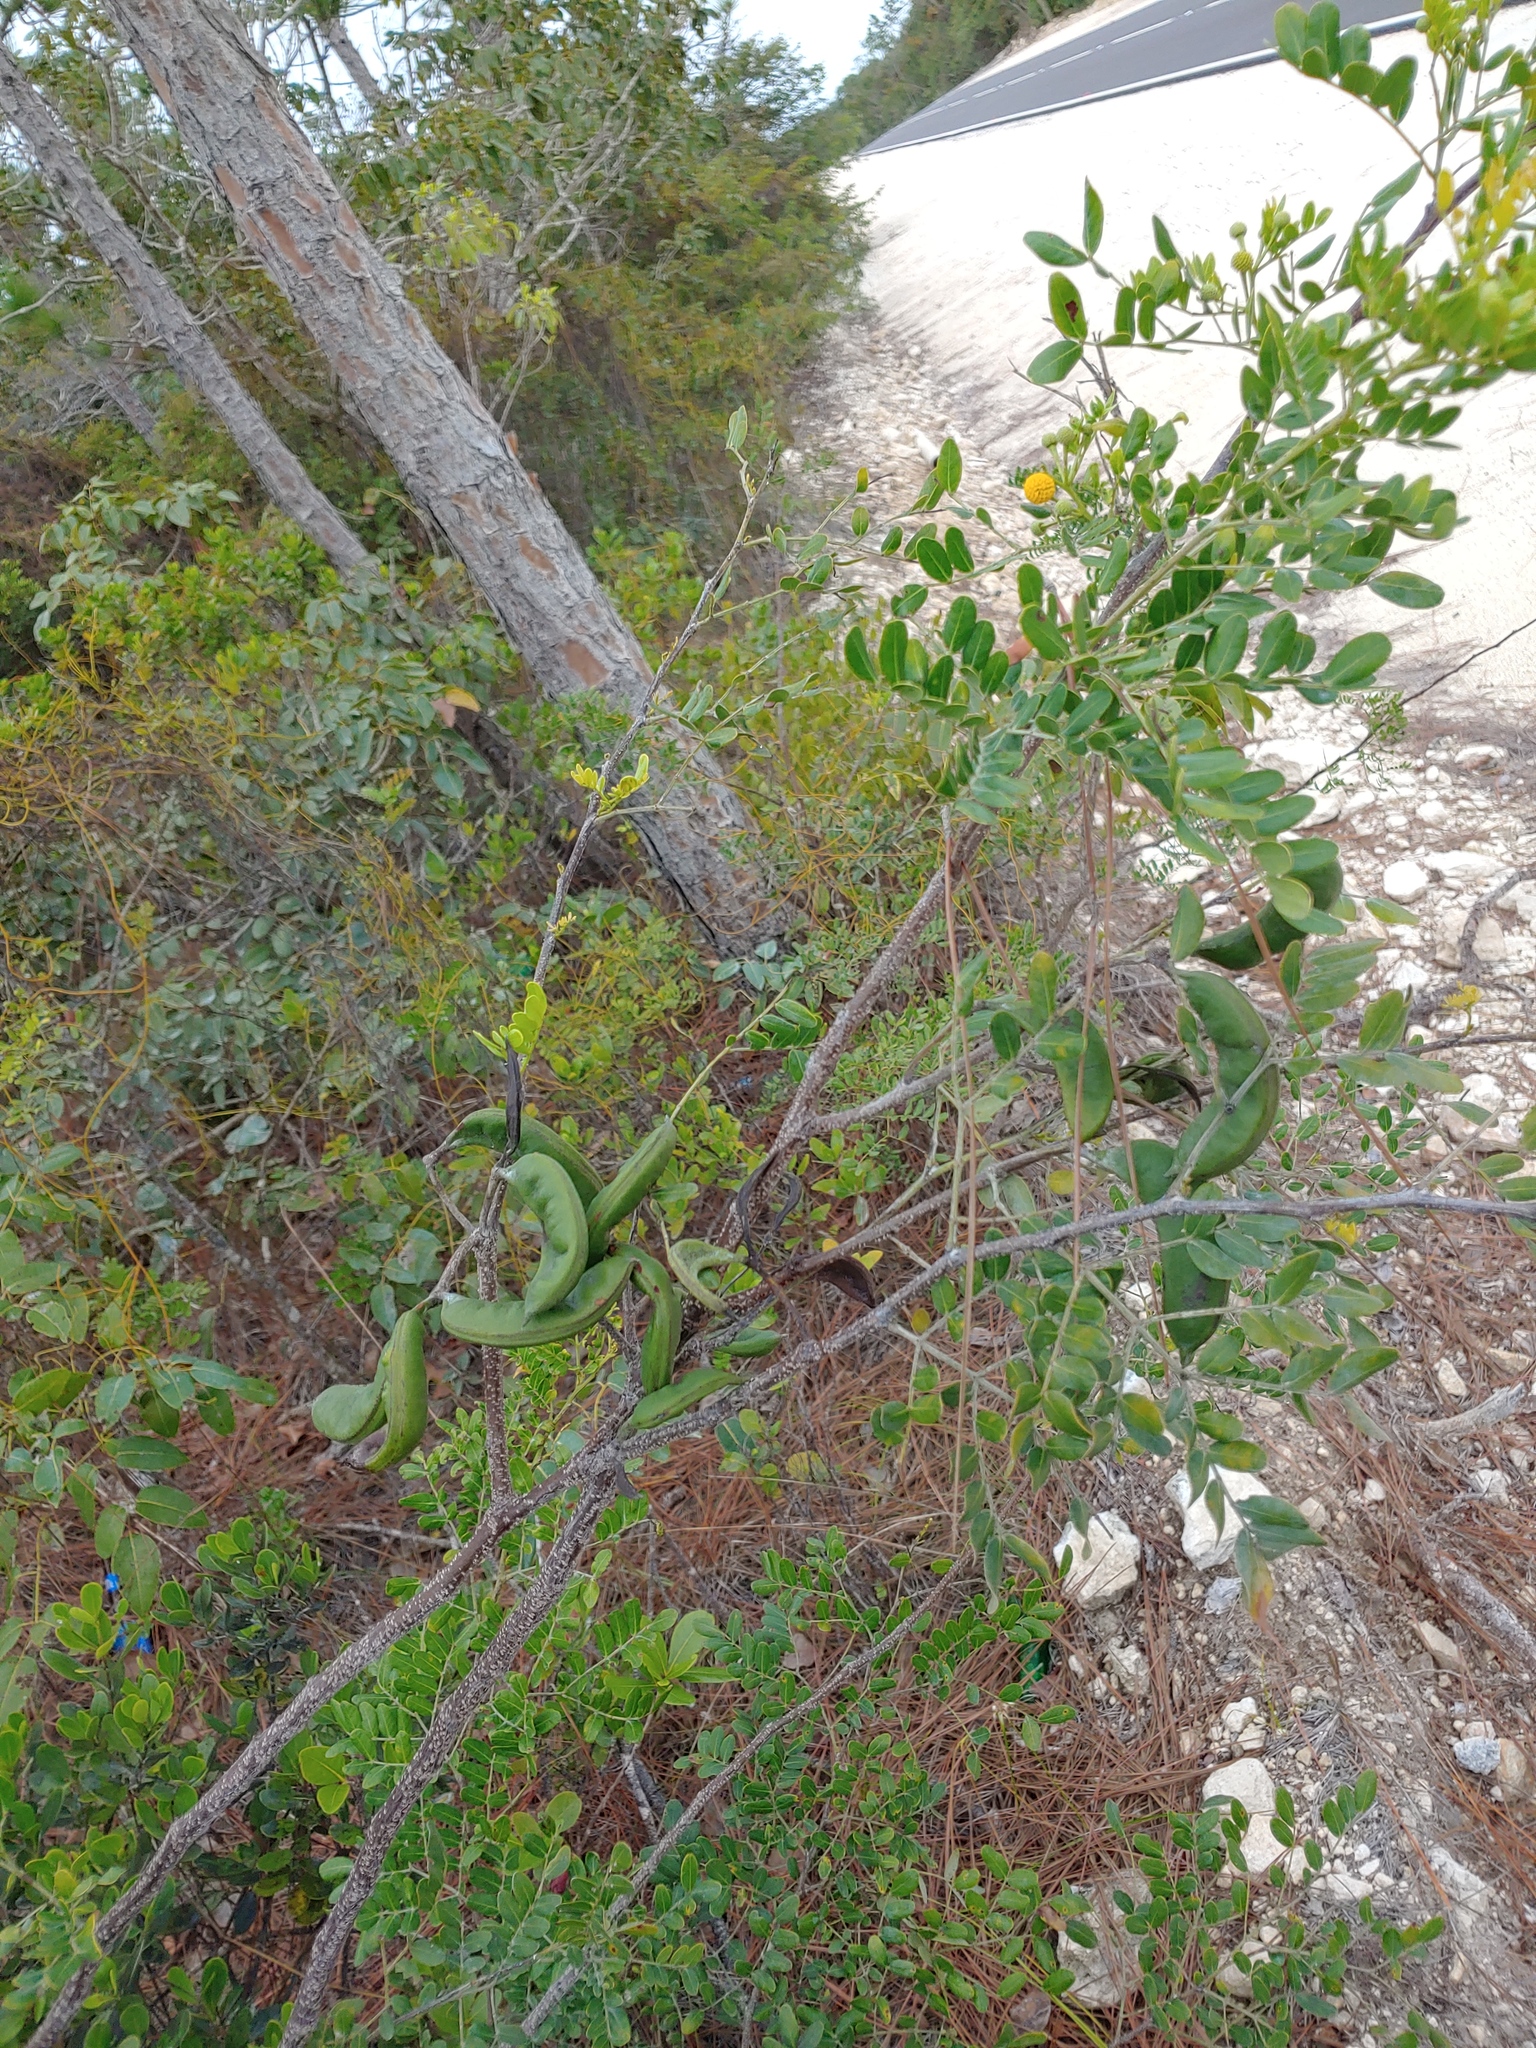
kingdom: Plantae
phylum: Tracheophyta
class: Magnoliopsida
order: Fabales
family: Fabaceae
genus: Vachellia
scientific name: Vachellia choriophylla
